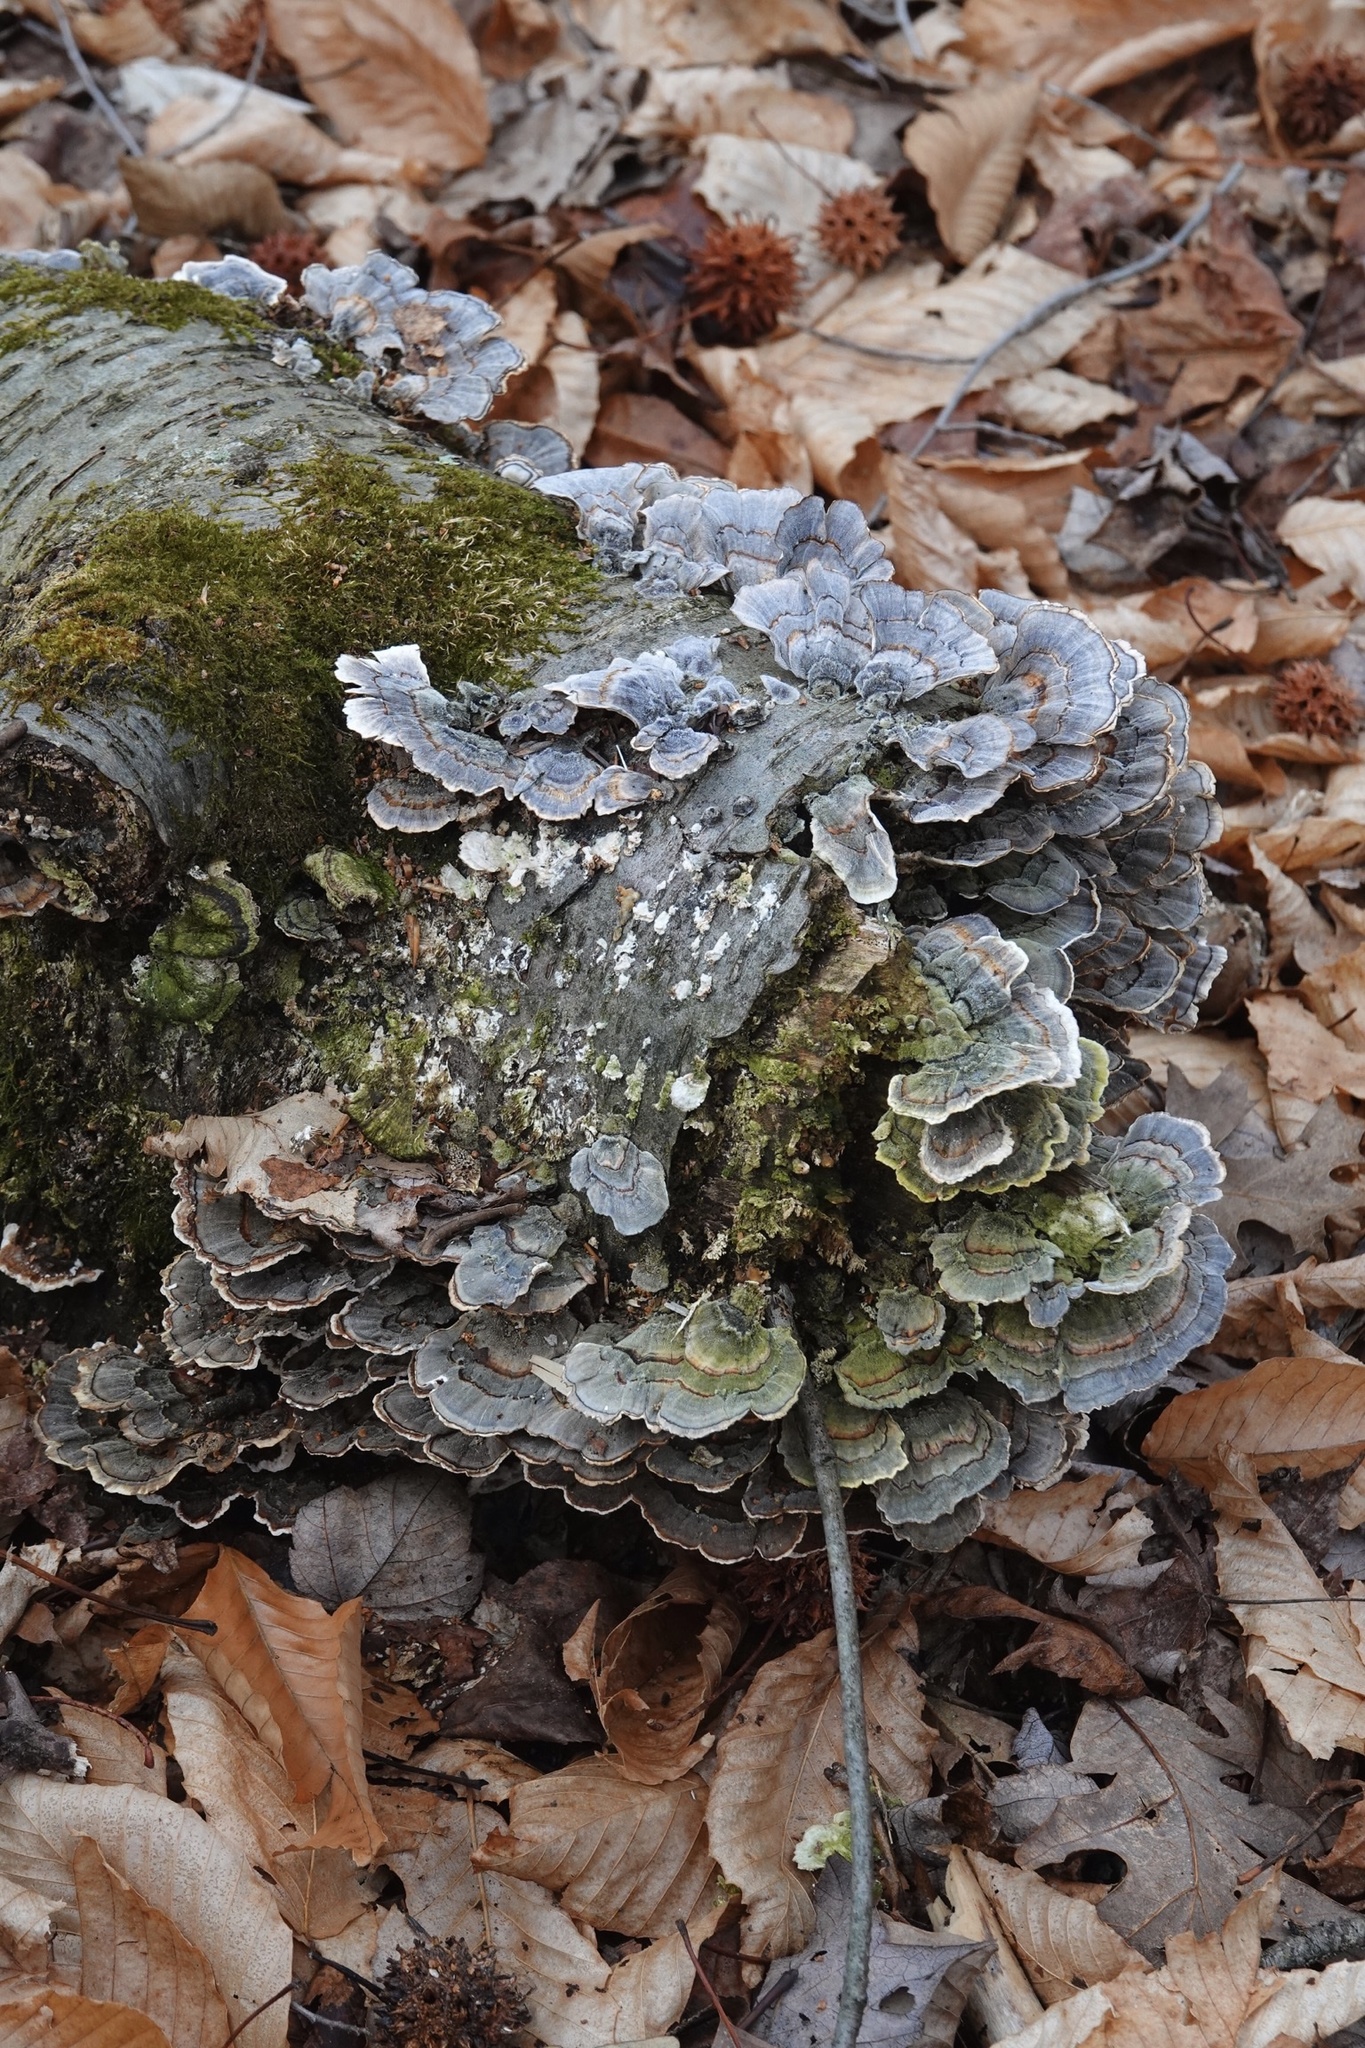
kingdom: Fungi
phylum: Basidiomycota
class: Agaricomycetes
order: Polyporales
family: Polyporaceae
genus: Trametes
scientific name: Trametes versicolor
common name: Turkeytail
